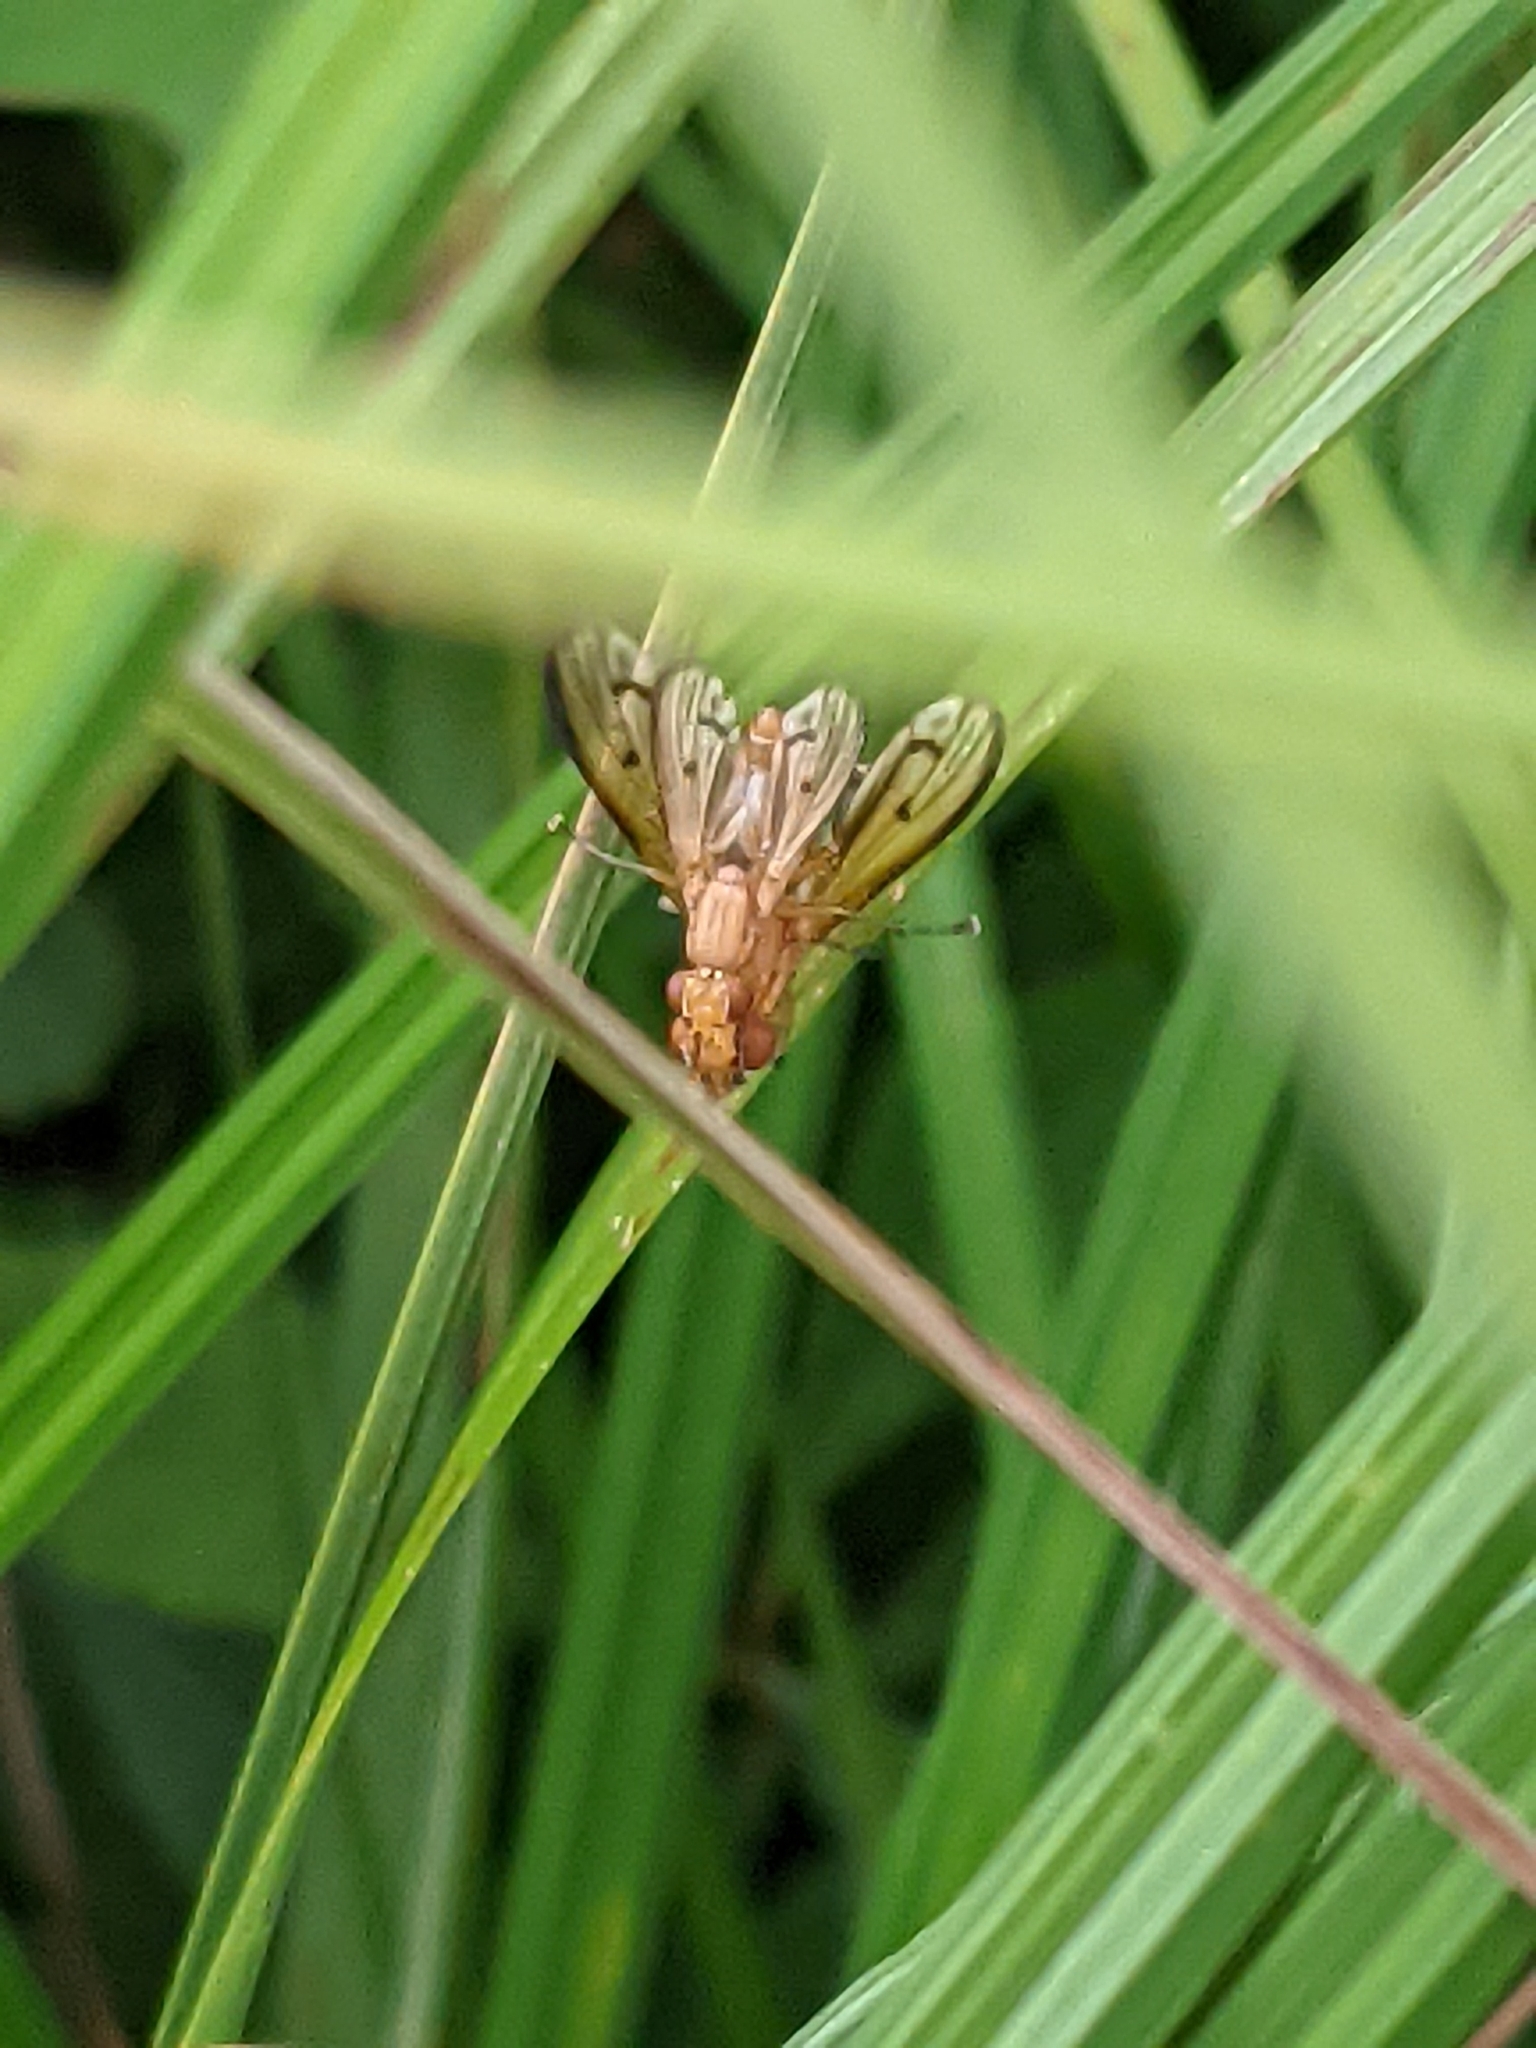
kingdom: Animalia
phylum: Arthropoda
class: Insecta
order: Diptera
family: Sciomyzidae
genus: Tetanocera
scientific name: Tetanocera plebeja
